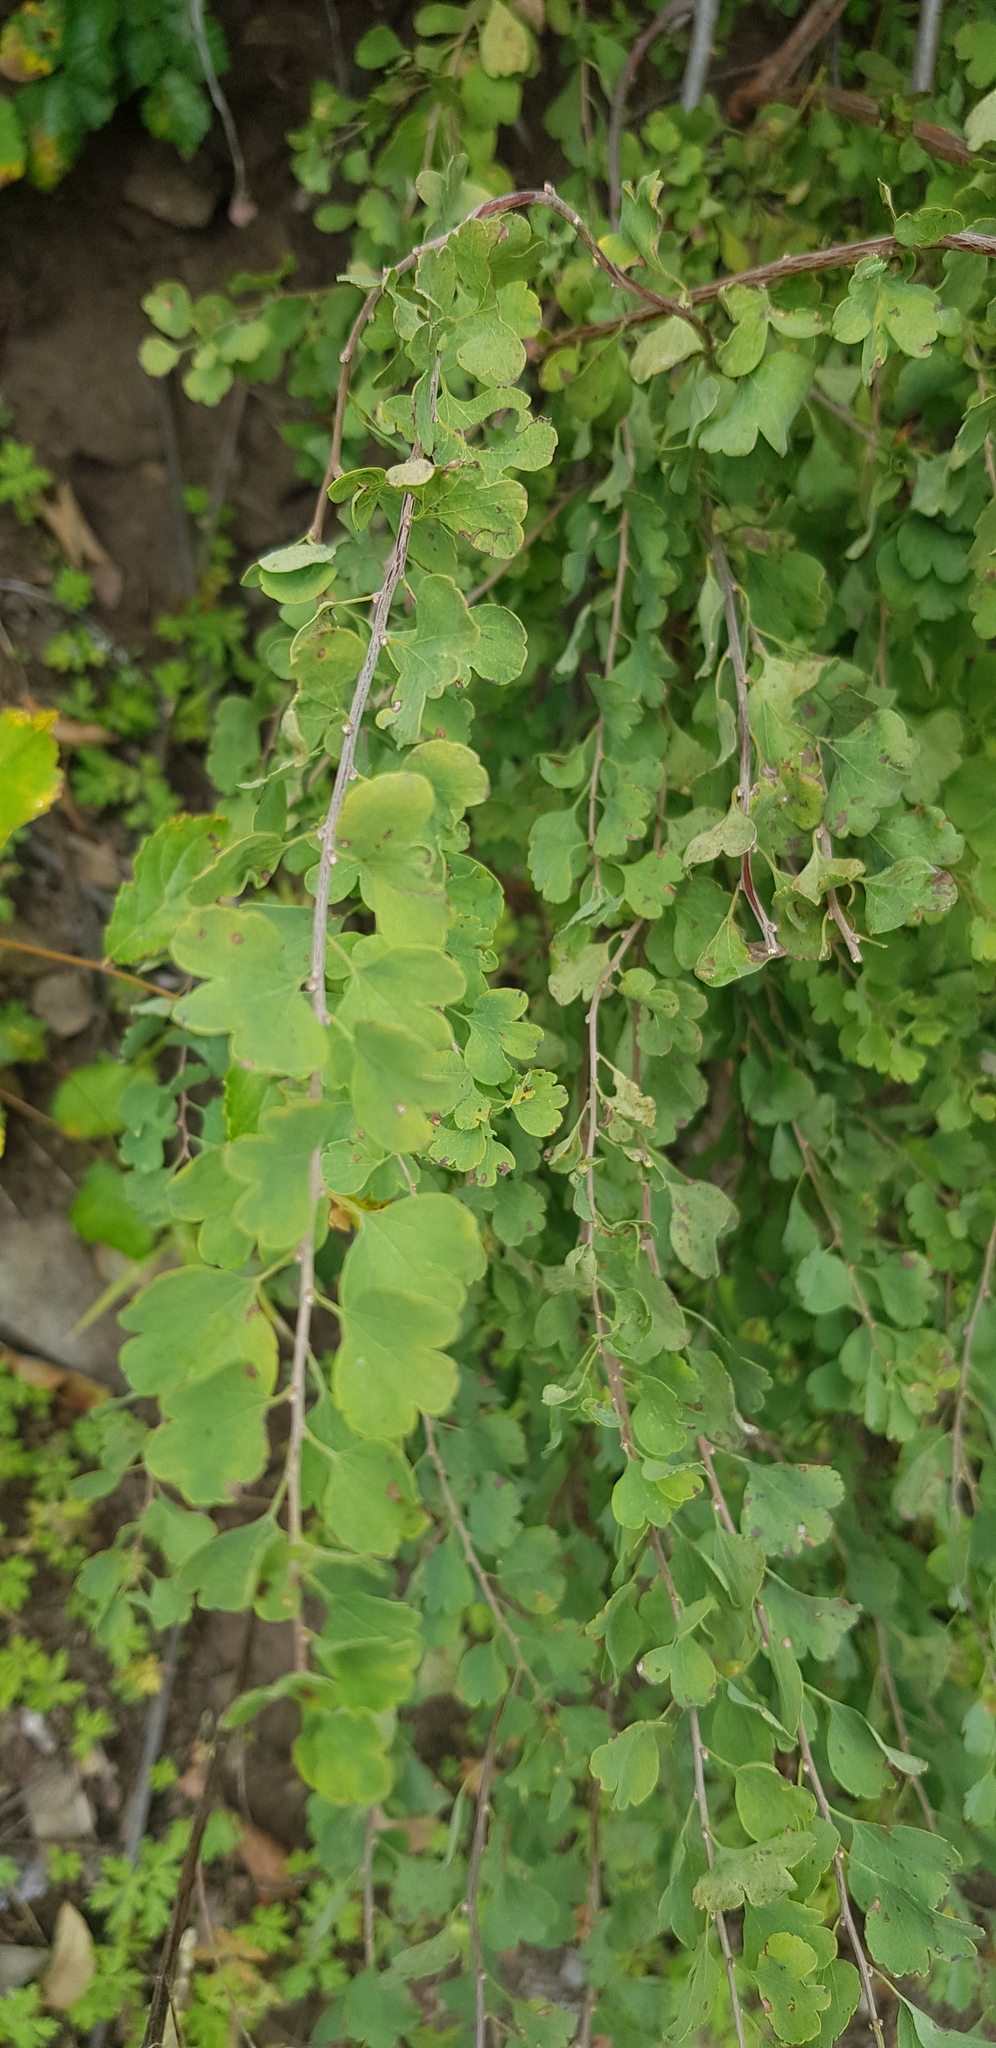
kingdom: Plantae
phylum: Tracheophyta
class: Magnoliopsida
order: Rosales
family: Rosaceae
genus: Spiraea
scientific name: Spiraea aquilegifolia
